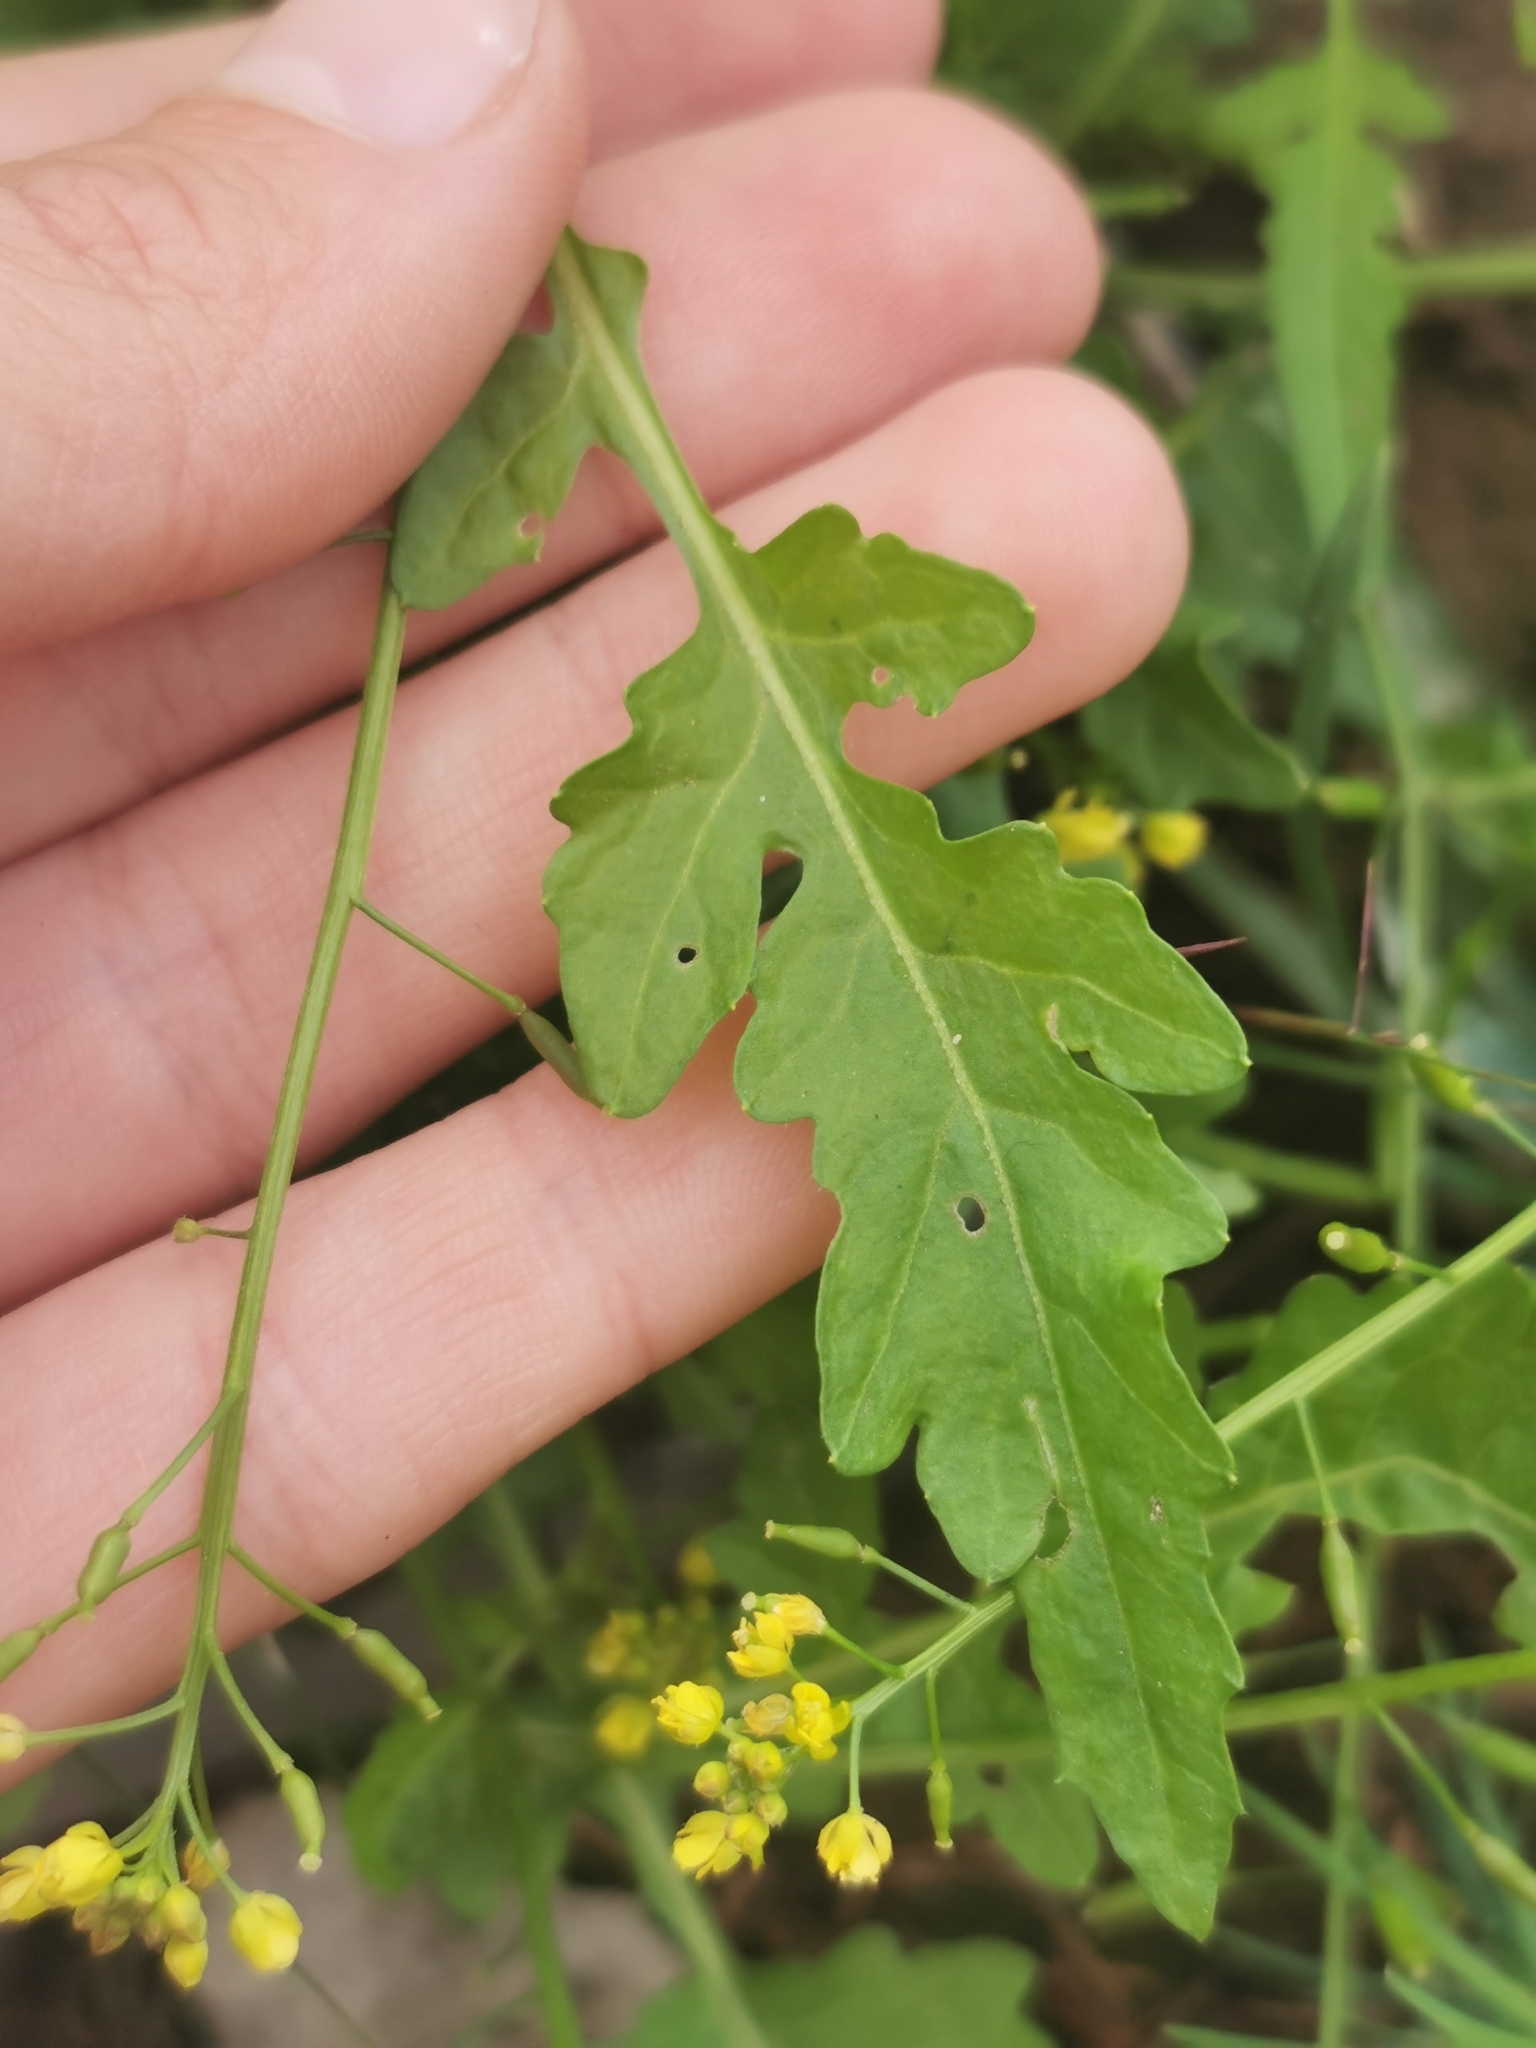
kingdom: Plantae
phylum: Tracheophyta
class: Magnoliopsida
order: Brassicales
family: Brassicaceae
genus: Rorippa
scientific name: Rorippa palustris
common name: Marsh yellow-cress
